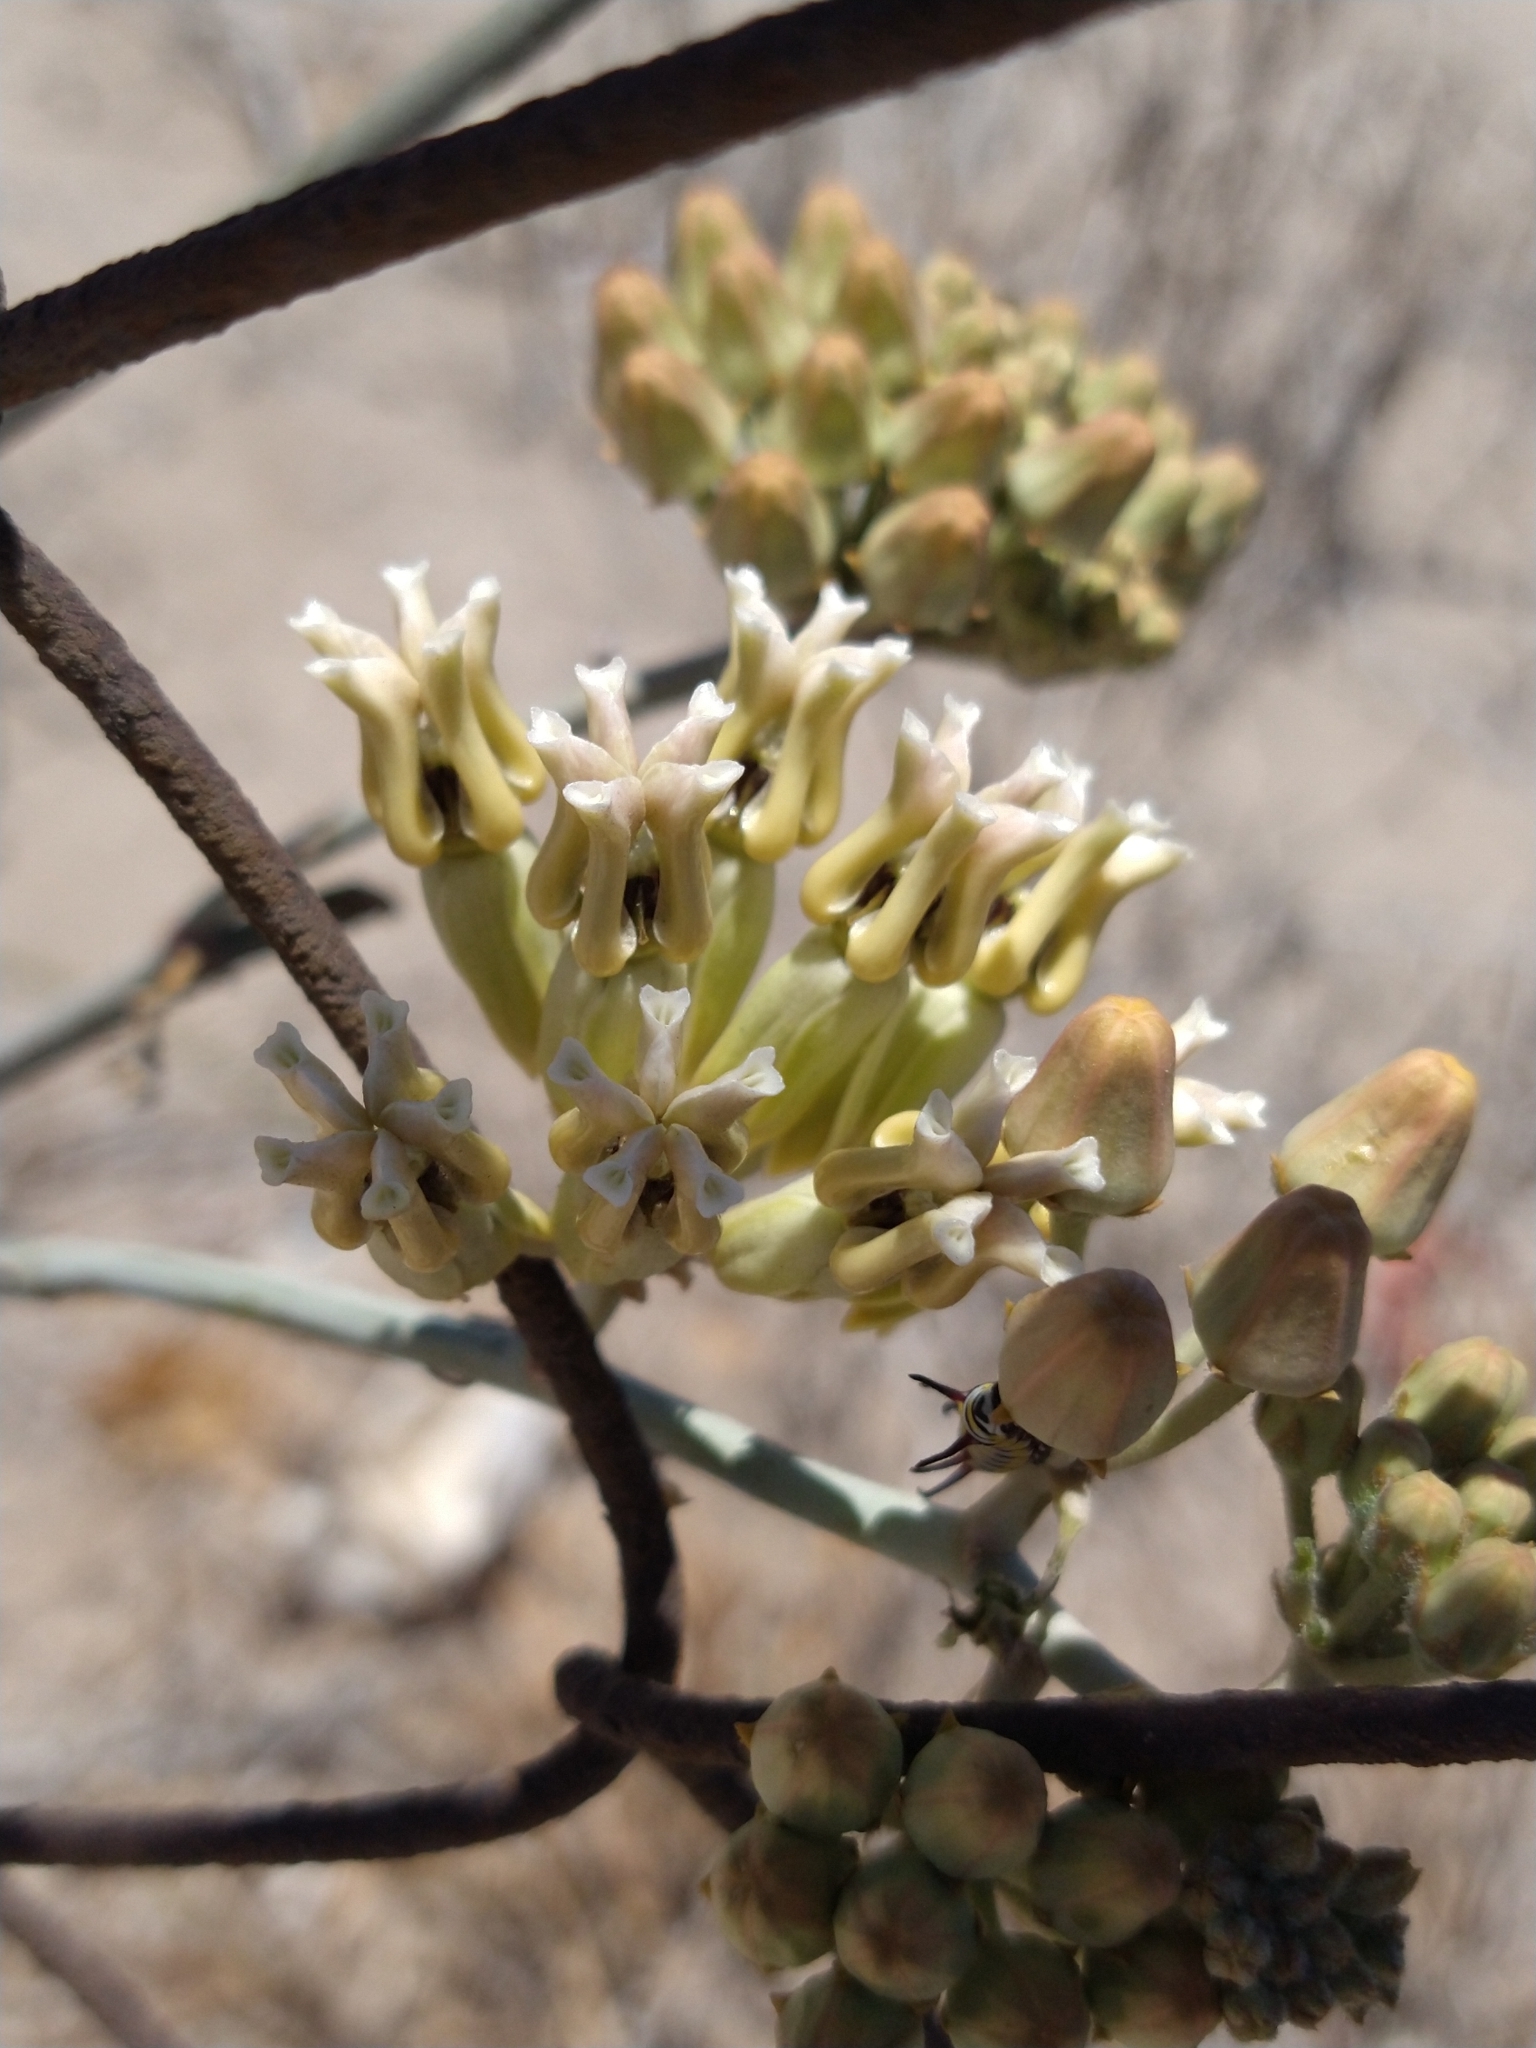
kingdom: Plantae
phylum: Tracheophyta
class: Magnoliopsida
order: Gentianales
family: Apocynaceae
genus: Asclepias
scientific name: Asclepias subulata
